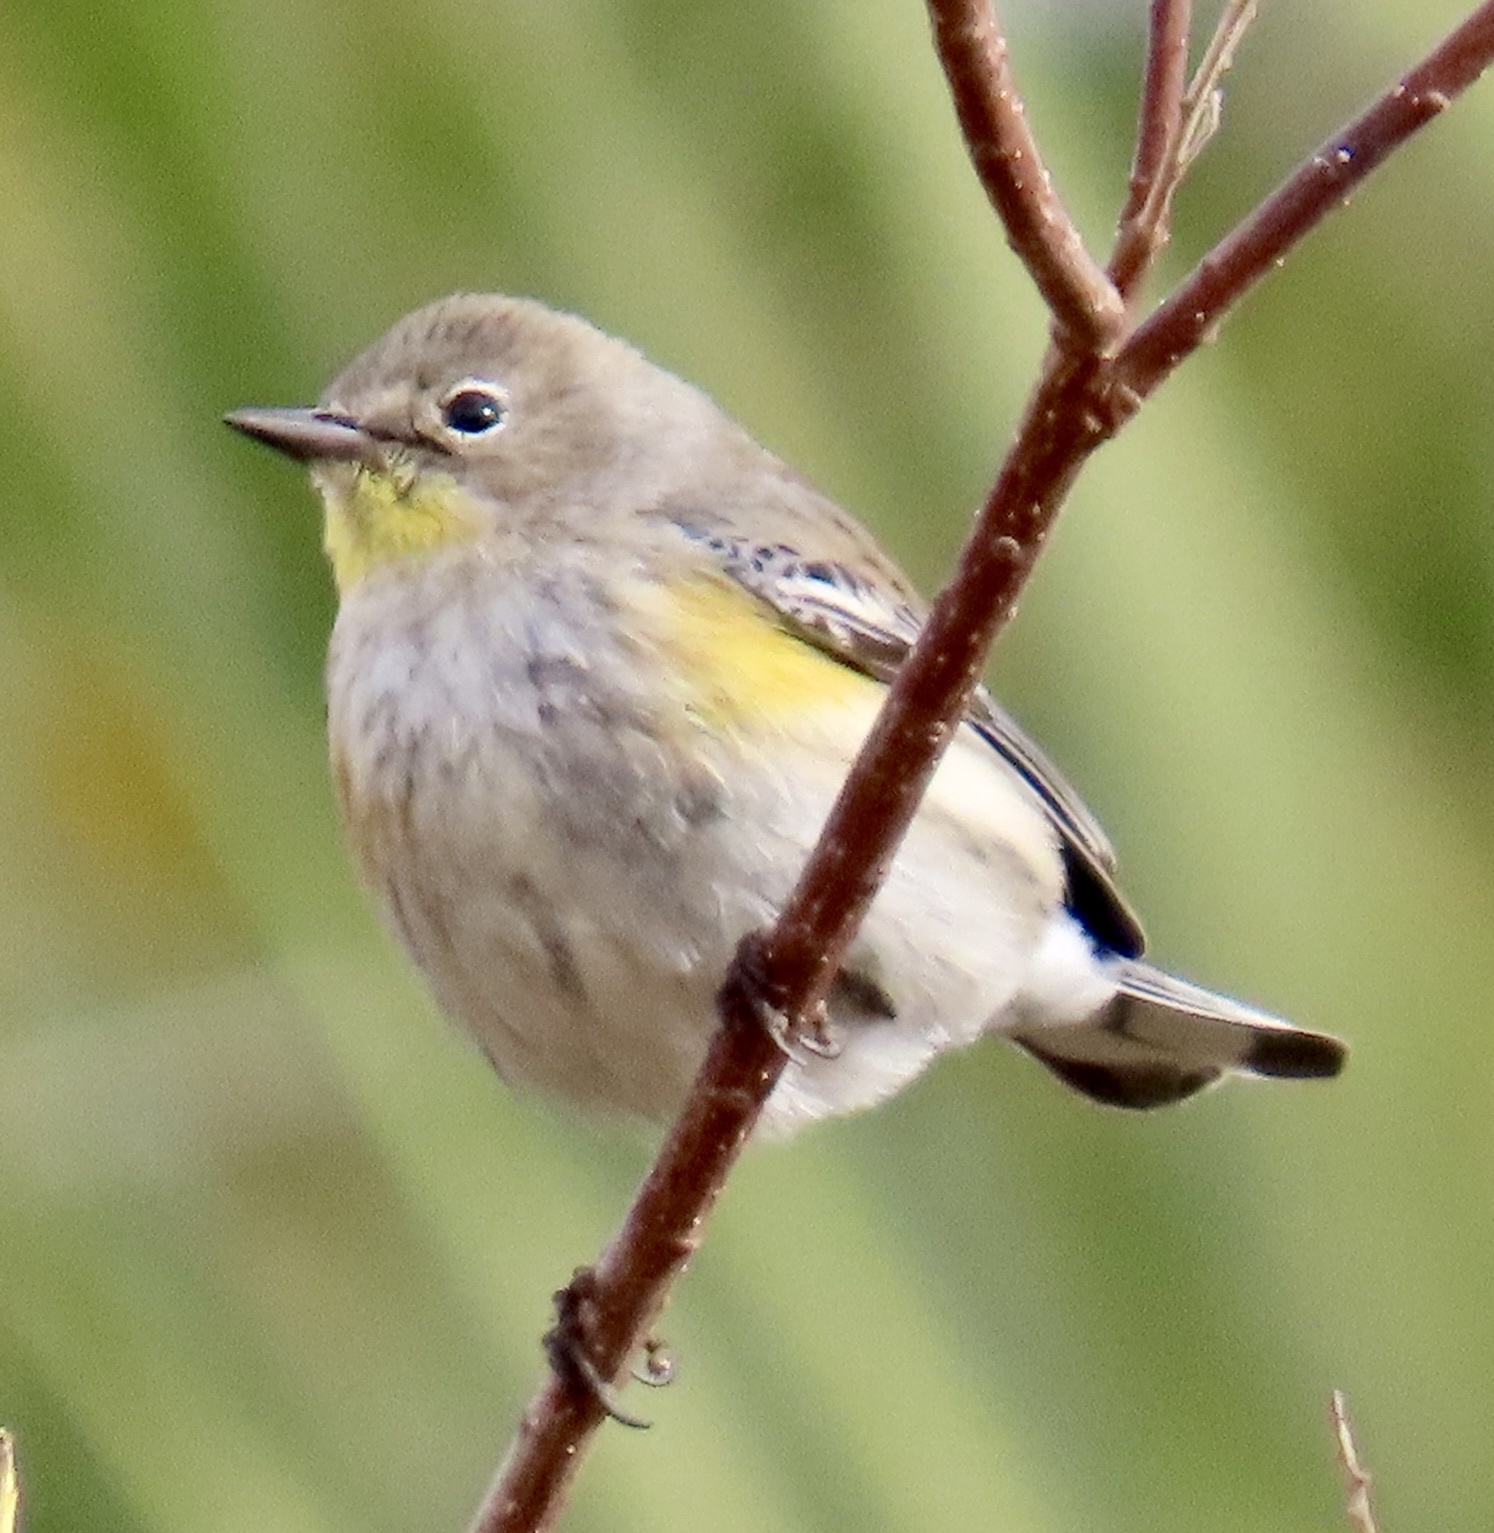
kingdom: Animalia
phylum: Chordata
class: Aves
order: Passeriformes
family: Parulidae
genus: Setophaga
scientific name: Setophaga auduboni
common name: Audubon's warbler
